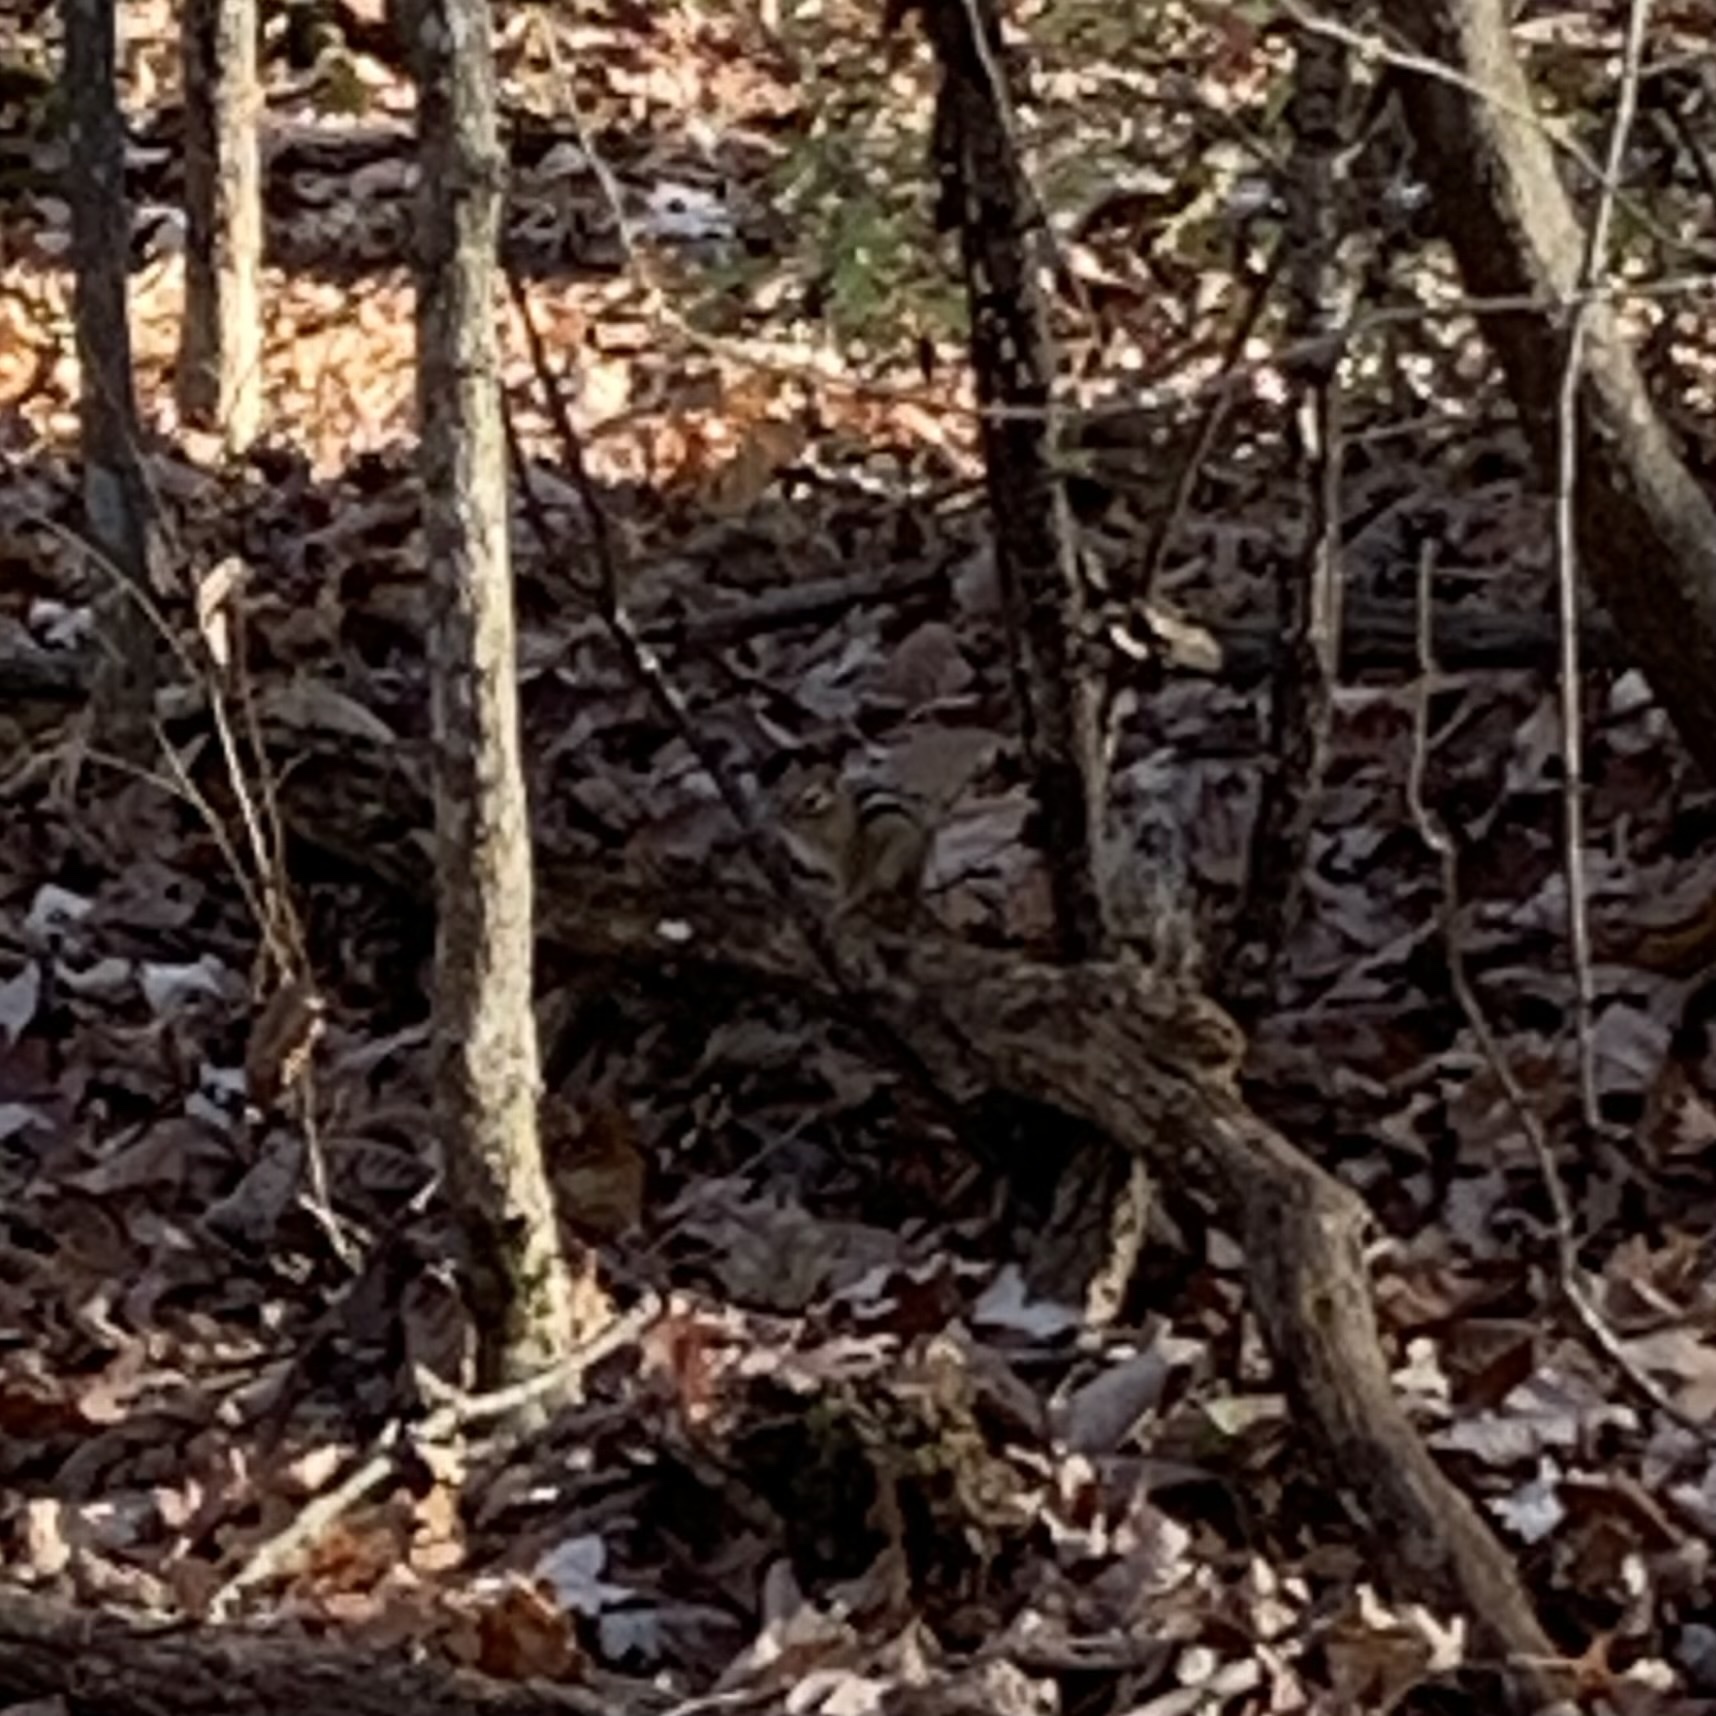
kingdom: Animalia
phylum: Chordata
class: Mammalia
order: Rodentia
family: Sciuridae
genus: Tamias
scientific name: Tamias striatus
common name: Eastern chipmunk
